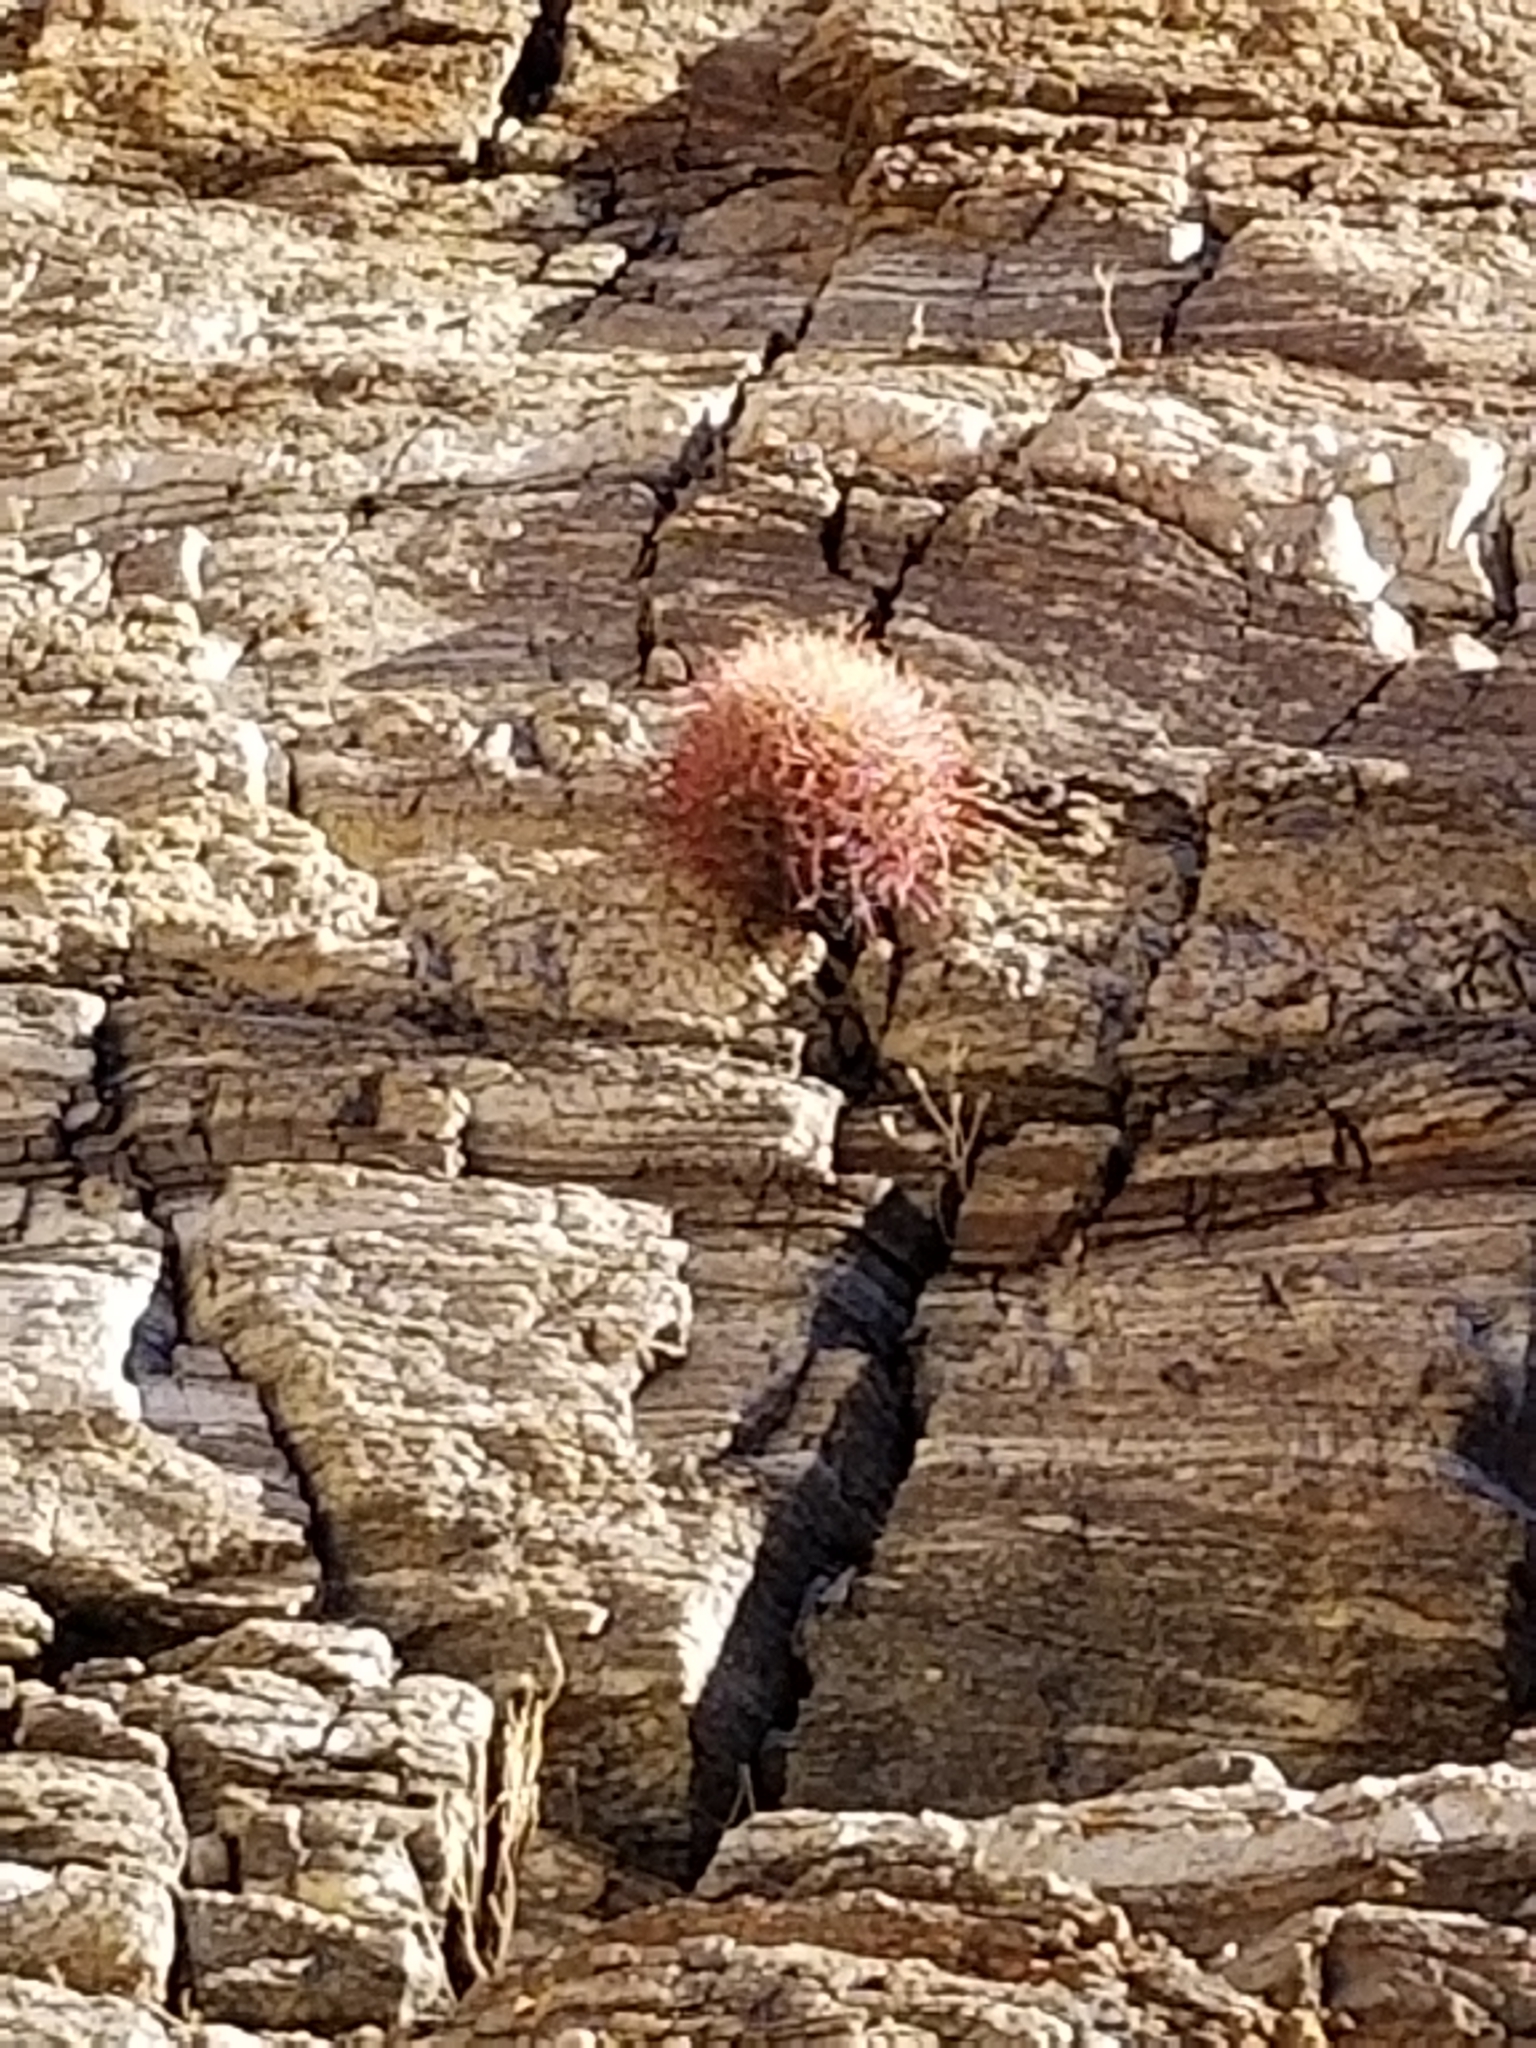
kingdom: Plantae
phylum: Tracheophyta
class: Magnoliopsida
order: Caryophyllales
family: Cactaceae
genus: Ferocactus
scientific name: Ferocactus cylindraceus
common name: California barrel cactus
